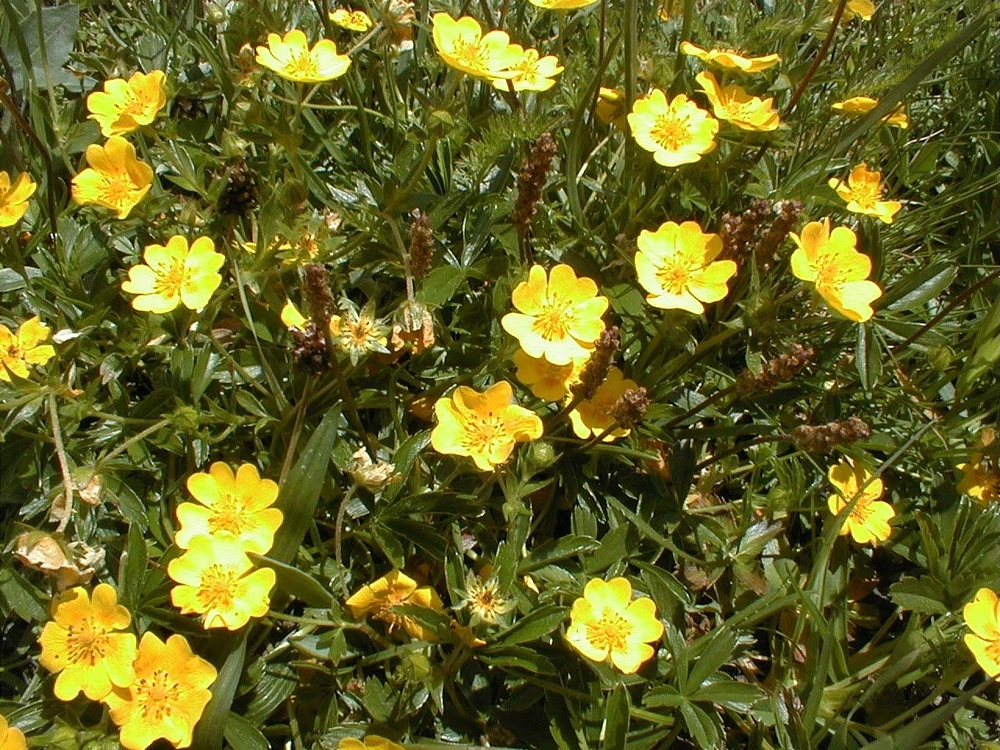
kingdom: Plantae
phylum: Tracheophyta
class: Magnoliopsida
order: Rosales
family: Rosaceae
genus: Potentilla
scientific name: Potentilla aurea
